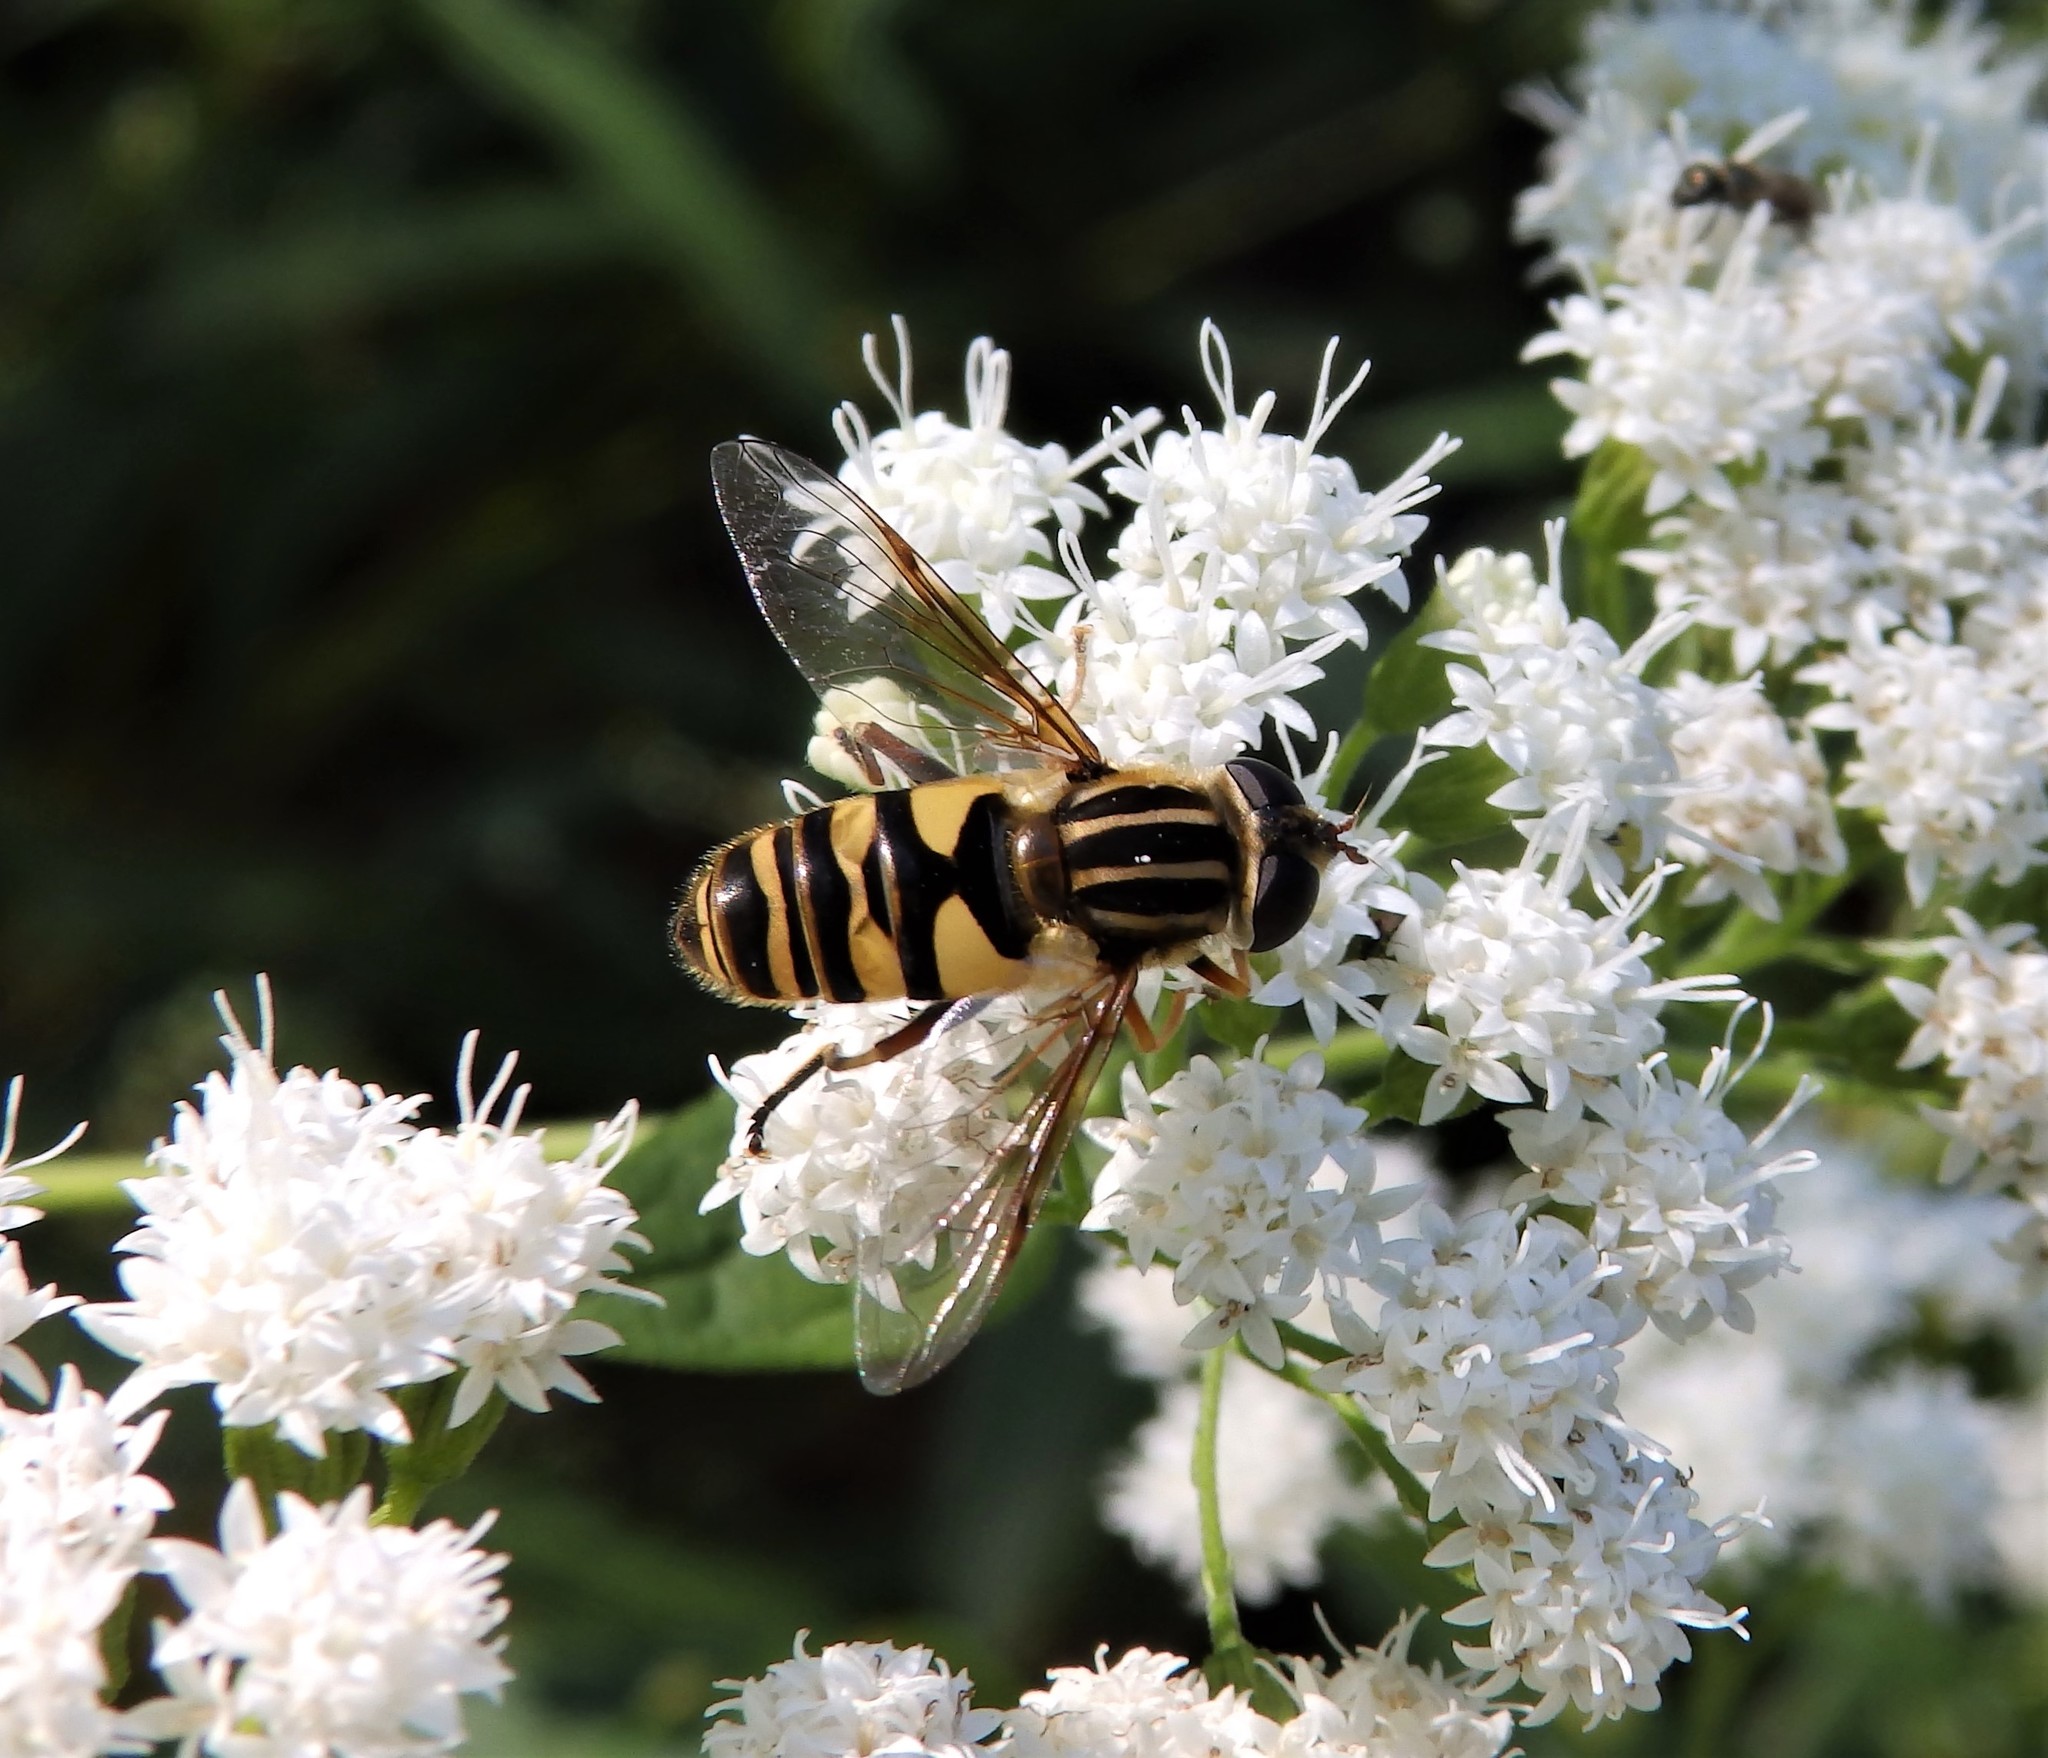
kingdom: Animalia
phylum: Arthropoda
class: Insecta
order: Diptera
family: Syrphidae
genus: Helophilus
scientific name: Helophilus fasciatus
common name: Narrow-headed marsh fly
